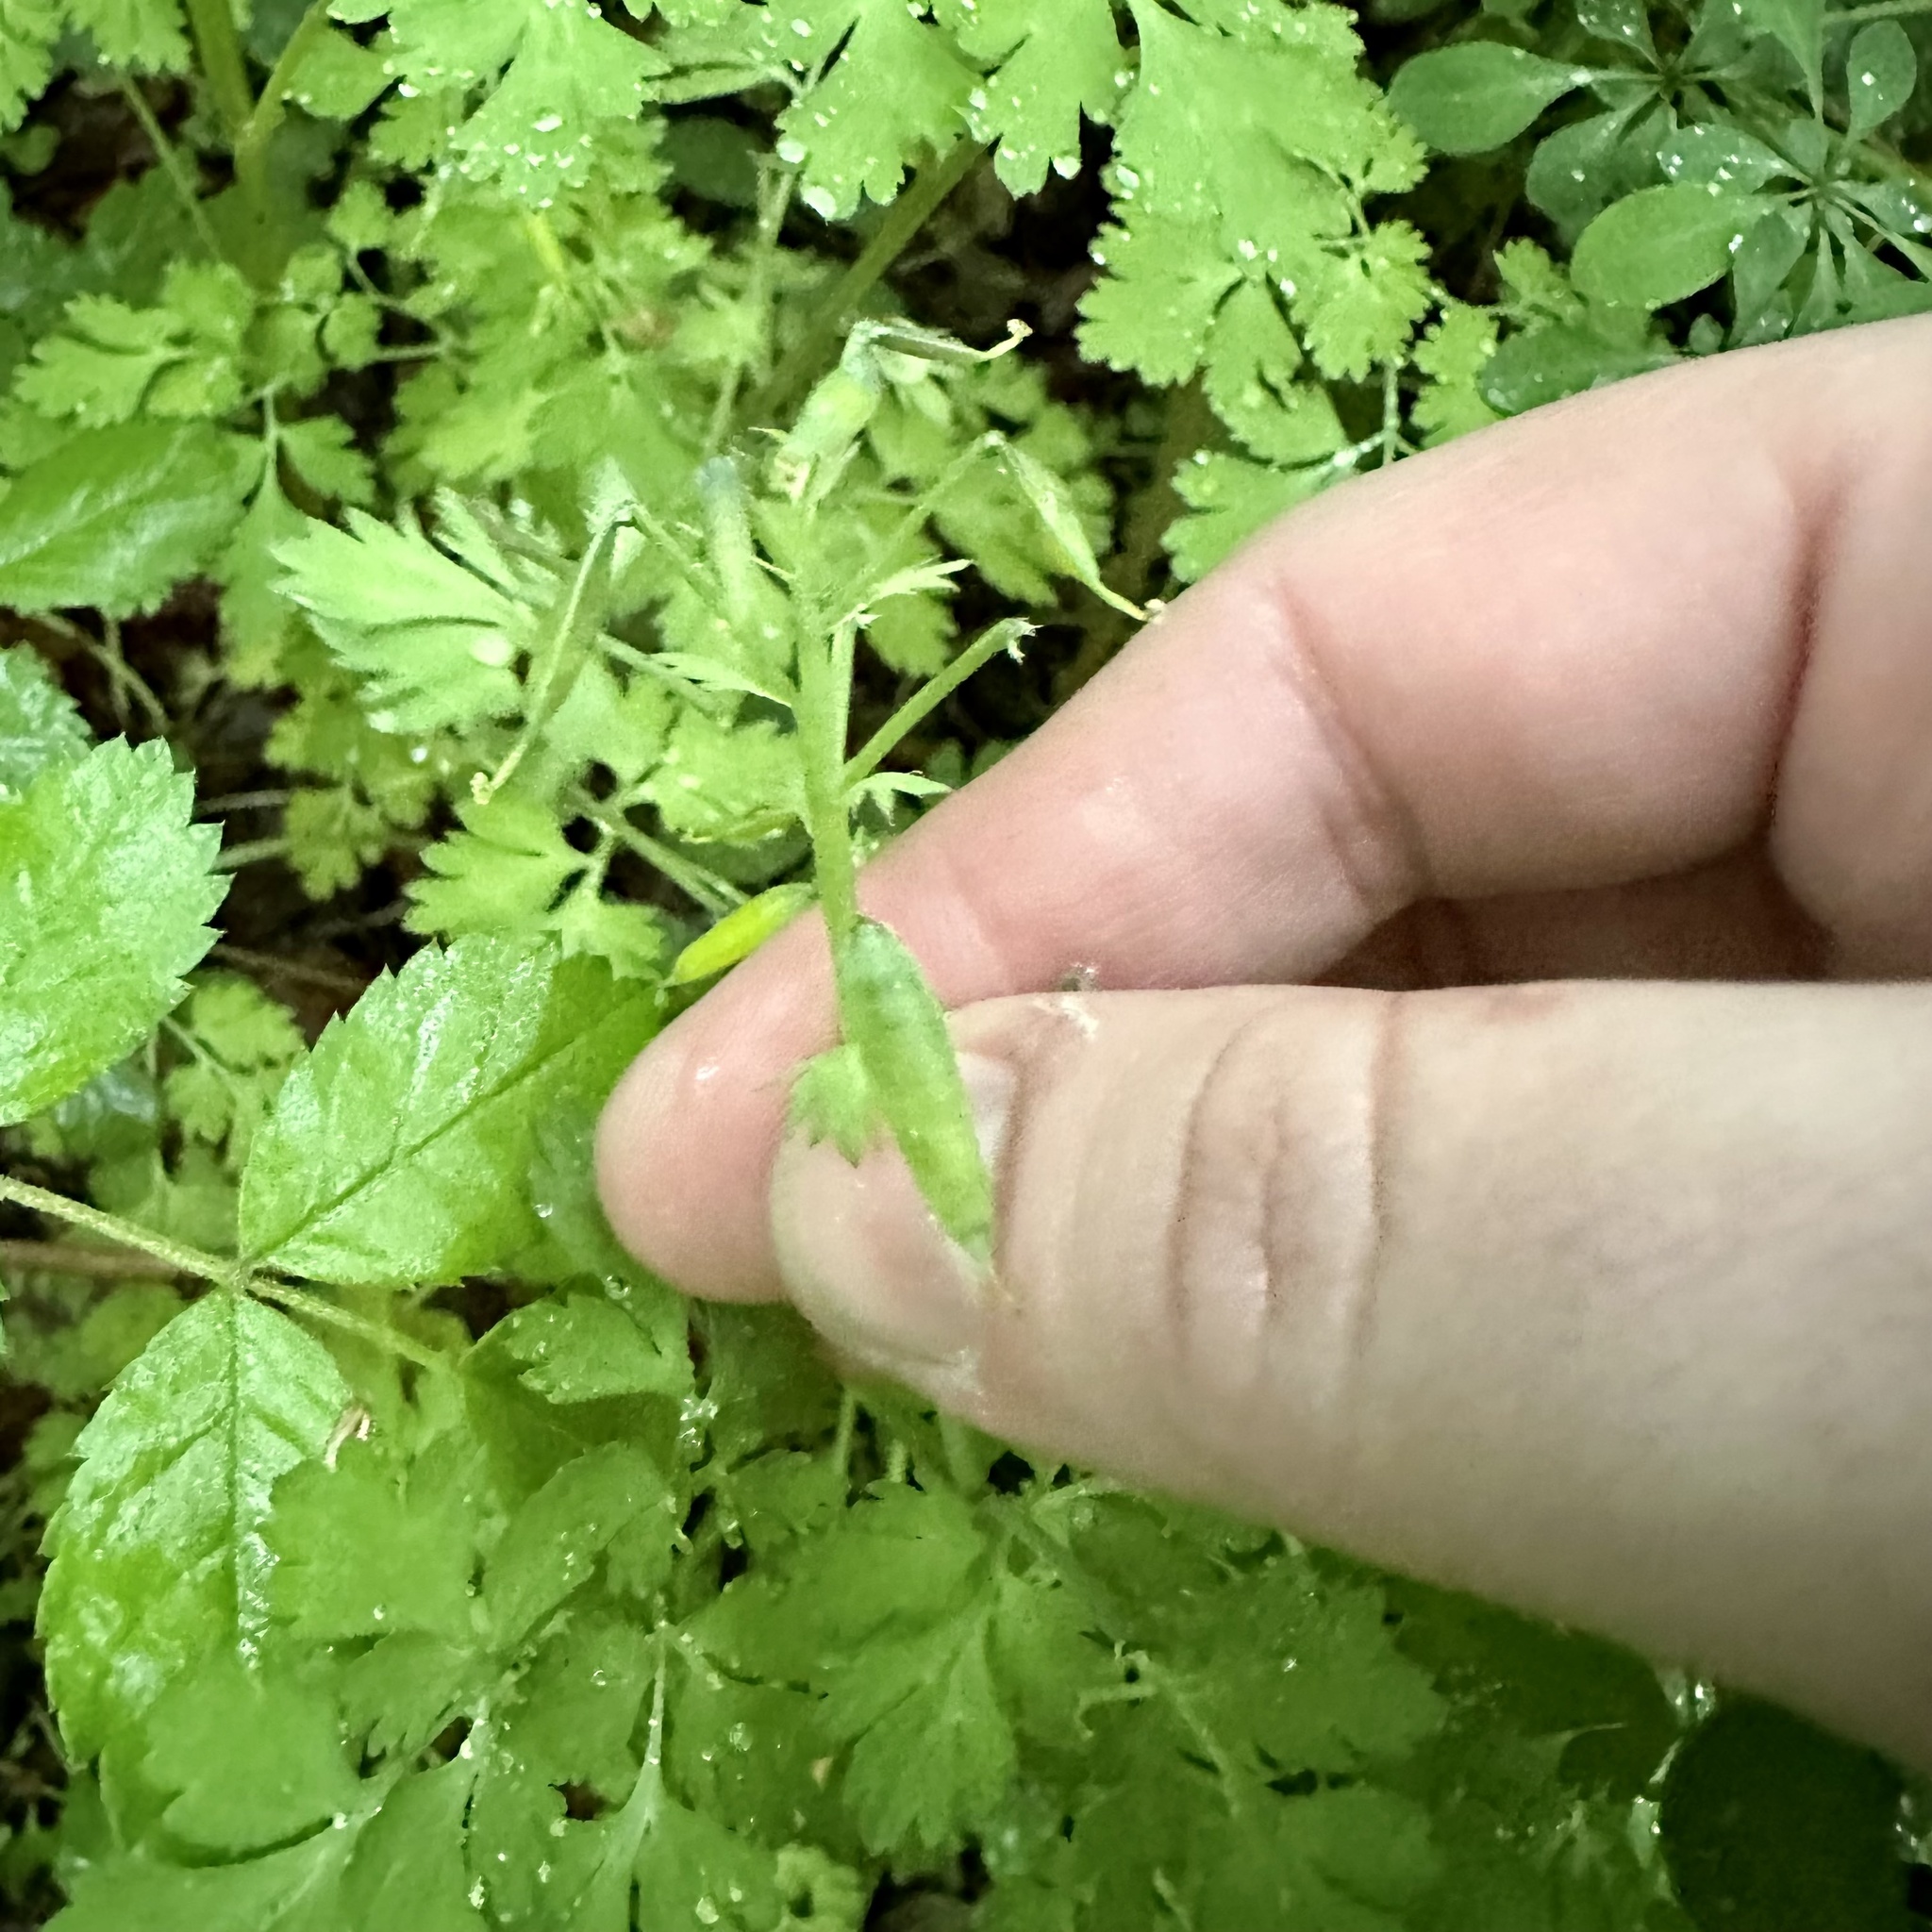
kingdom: Plantae
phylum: Tracheophyta
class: Magnoliopsida
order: Ranunculales
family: Papaveraceae
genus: Corydalis
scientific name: Corydalis incisa
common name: Incised fumewort
